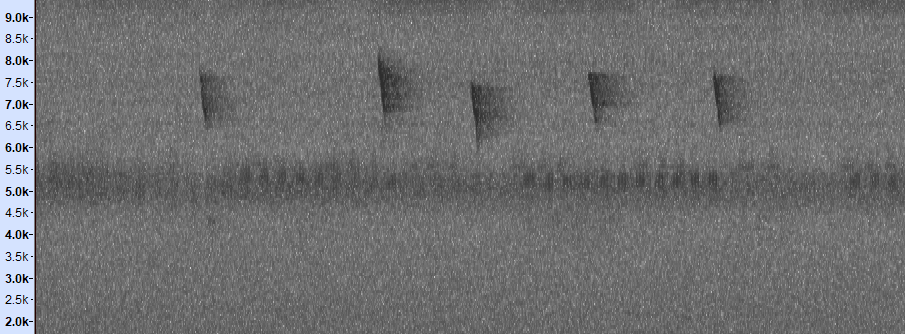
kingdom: Animalia
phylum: Chordata
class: Aves
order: Piciformes
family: Picidae
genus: Picumnus
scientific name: Picumnus innominatus
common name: Speckled piculet
